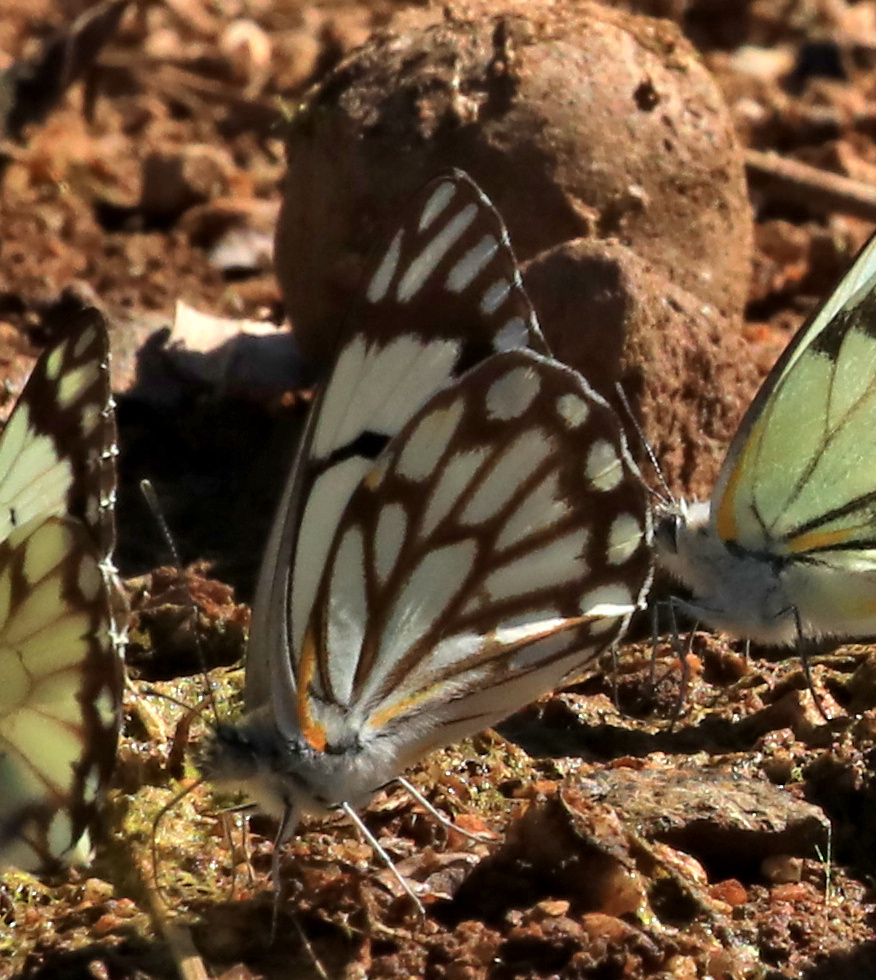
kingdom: Animalia
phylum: Arthropoda
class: Insecta
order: Lepidoptera
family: Pieridae
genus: Belenois
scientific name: Belenois aurota
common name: Brown-veined white
